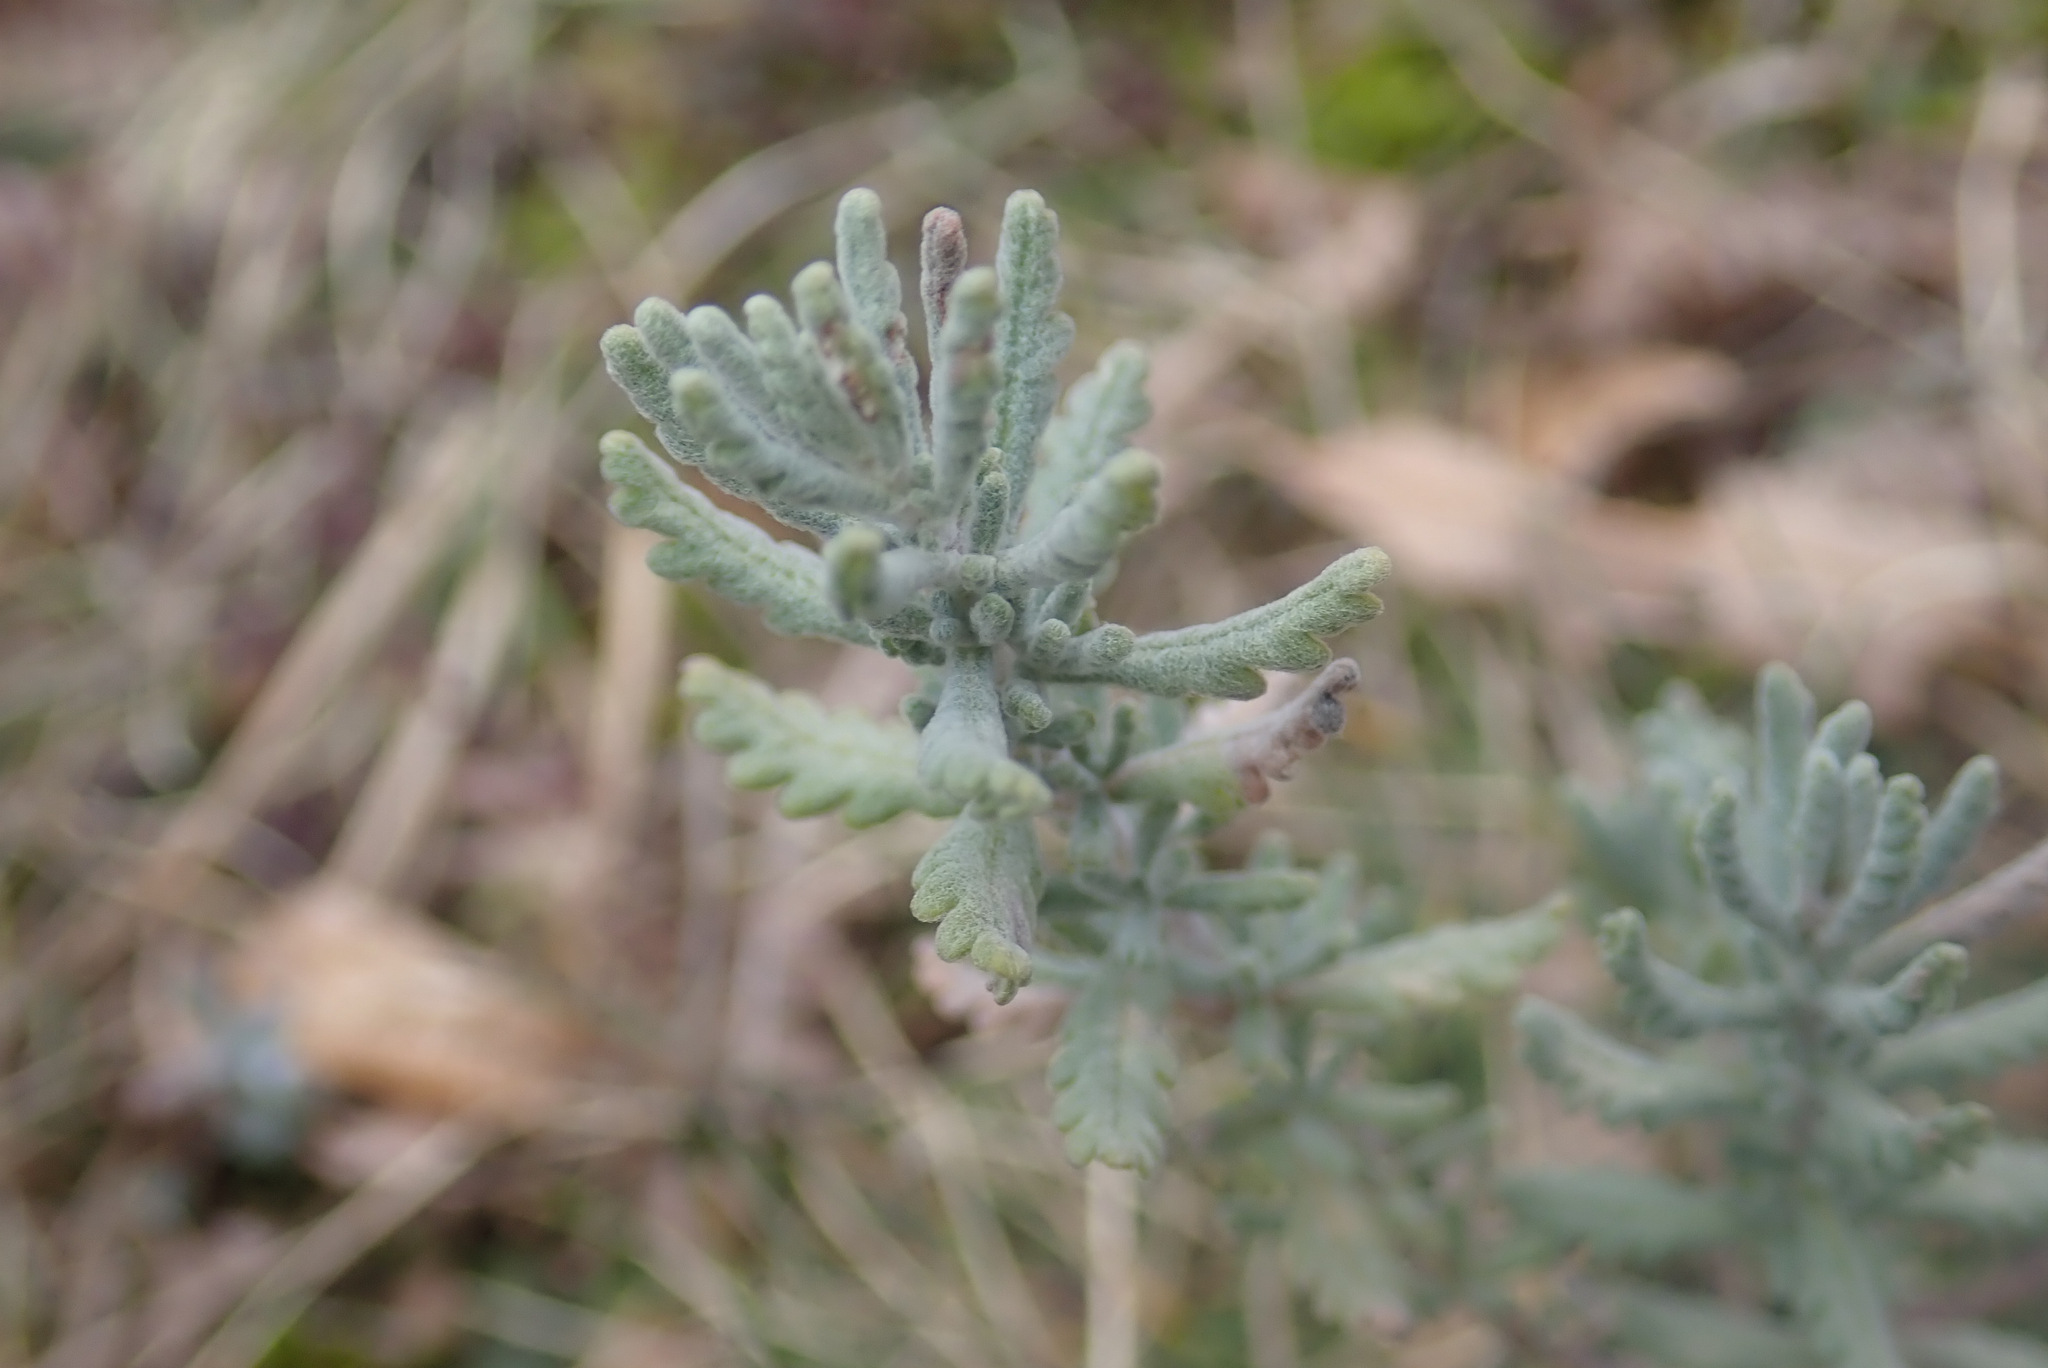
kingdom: Plantae
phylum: Tracheophyta
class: Magnoliopsida
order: Lamiales
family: Lamiaceae
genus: Teucrium
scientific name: Teucrium capitatum
